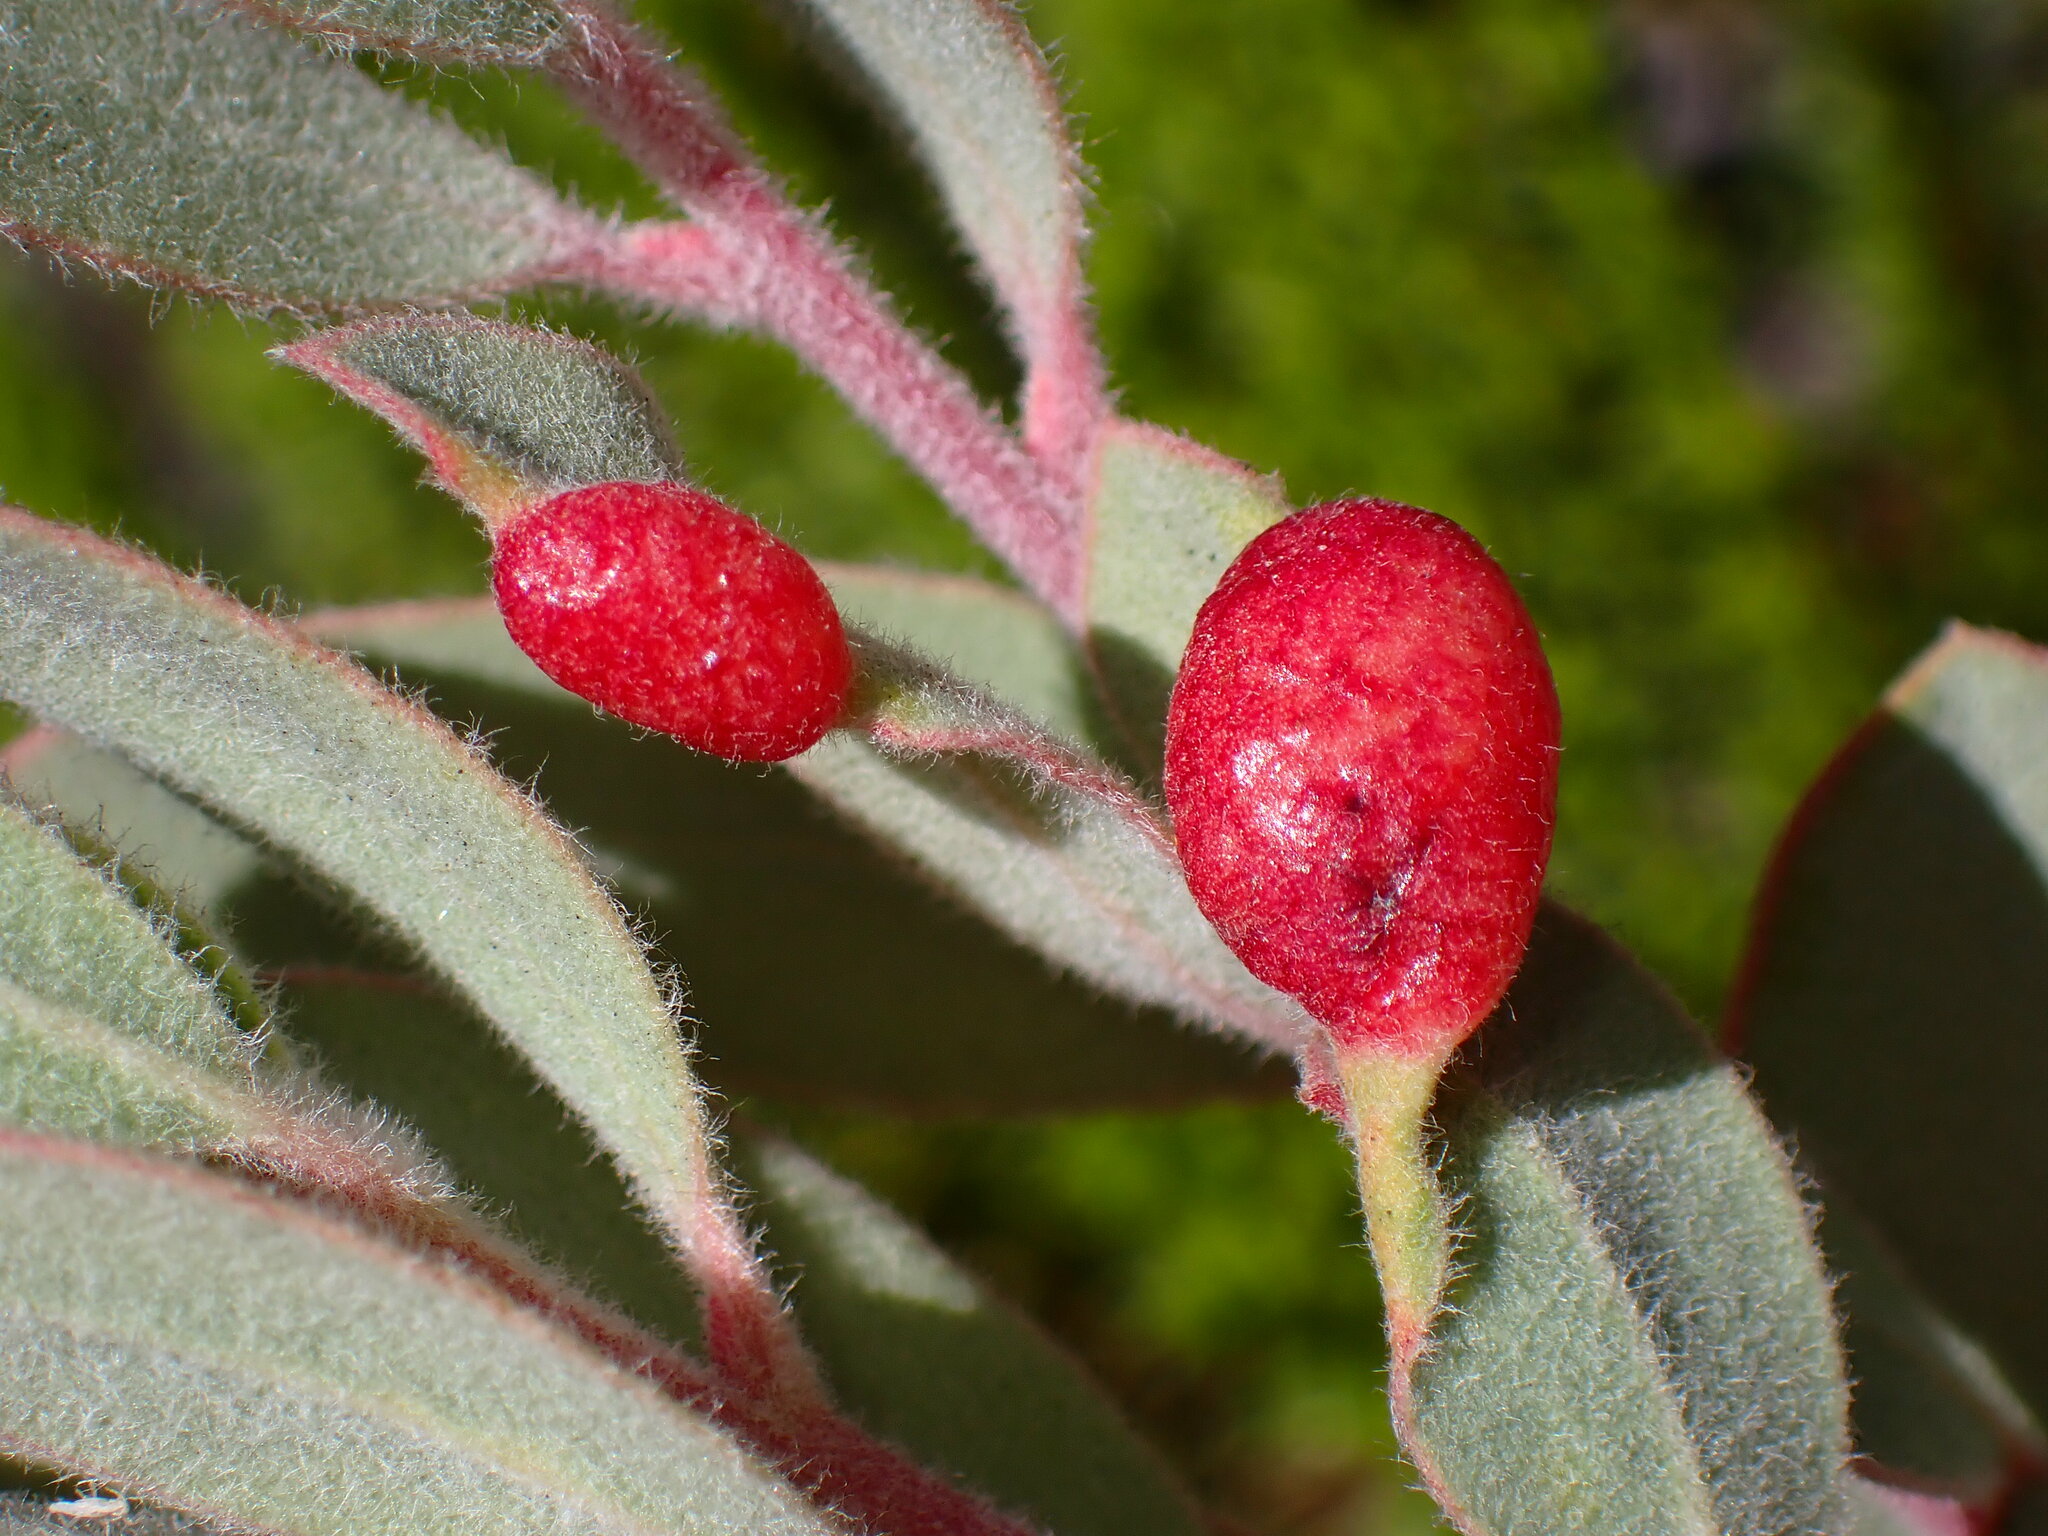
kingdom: Animalia
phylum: Arthropoda
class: Insecta
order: Hemiptera
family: Aphididae
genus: Tamalia
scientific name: Tamalia coweni
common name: Manzanita leafgall aphid
